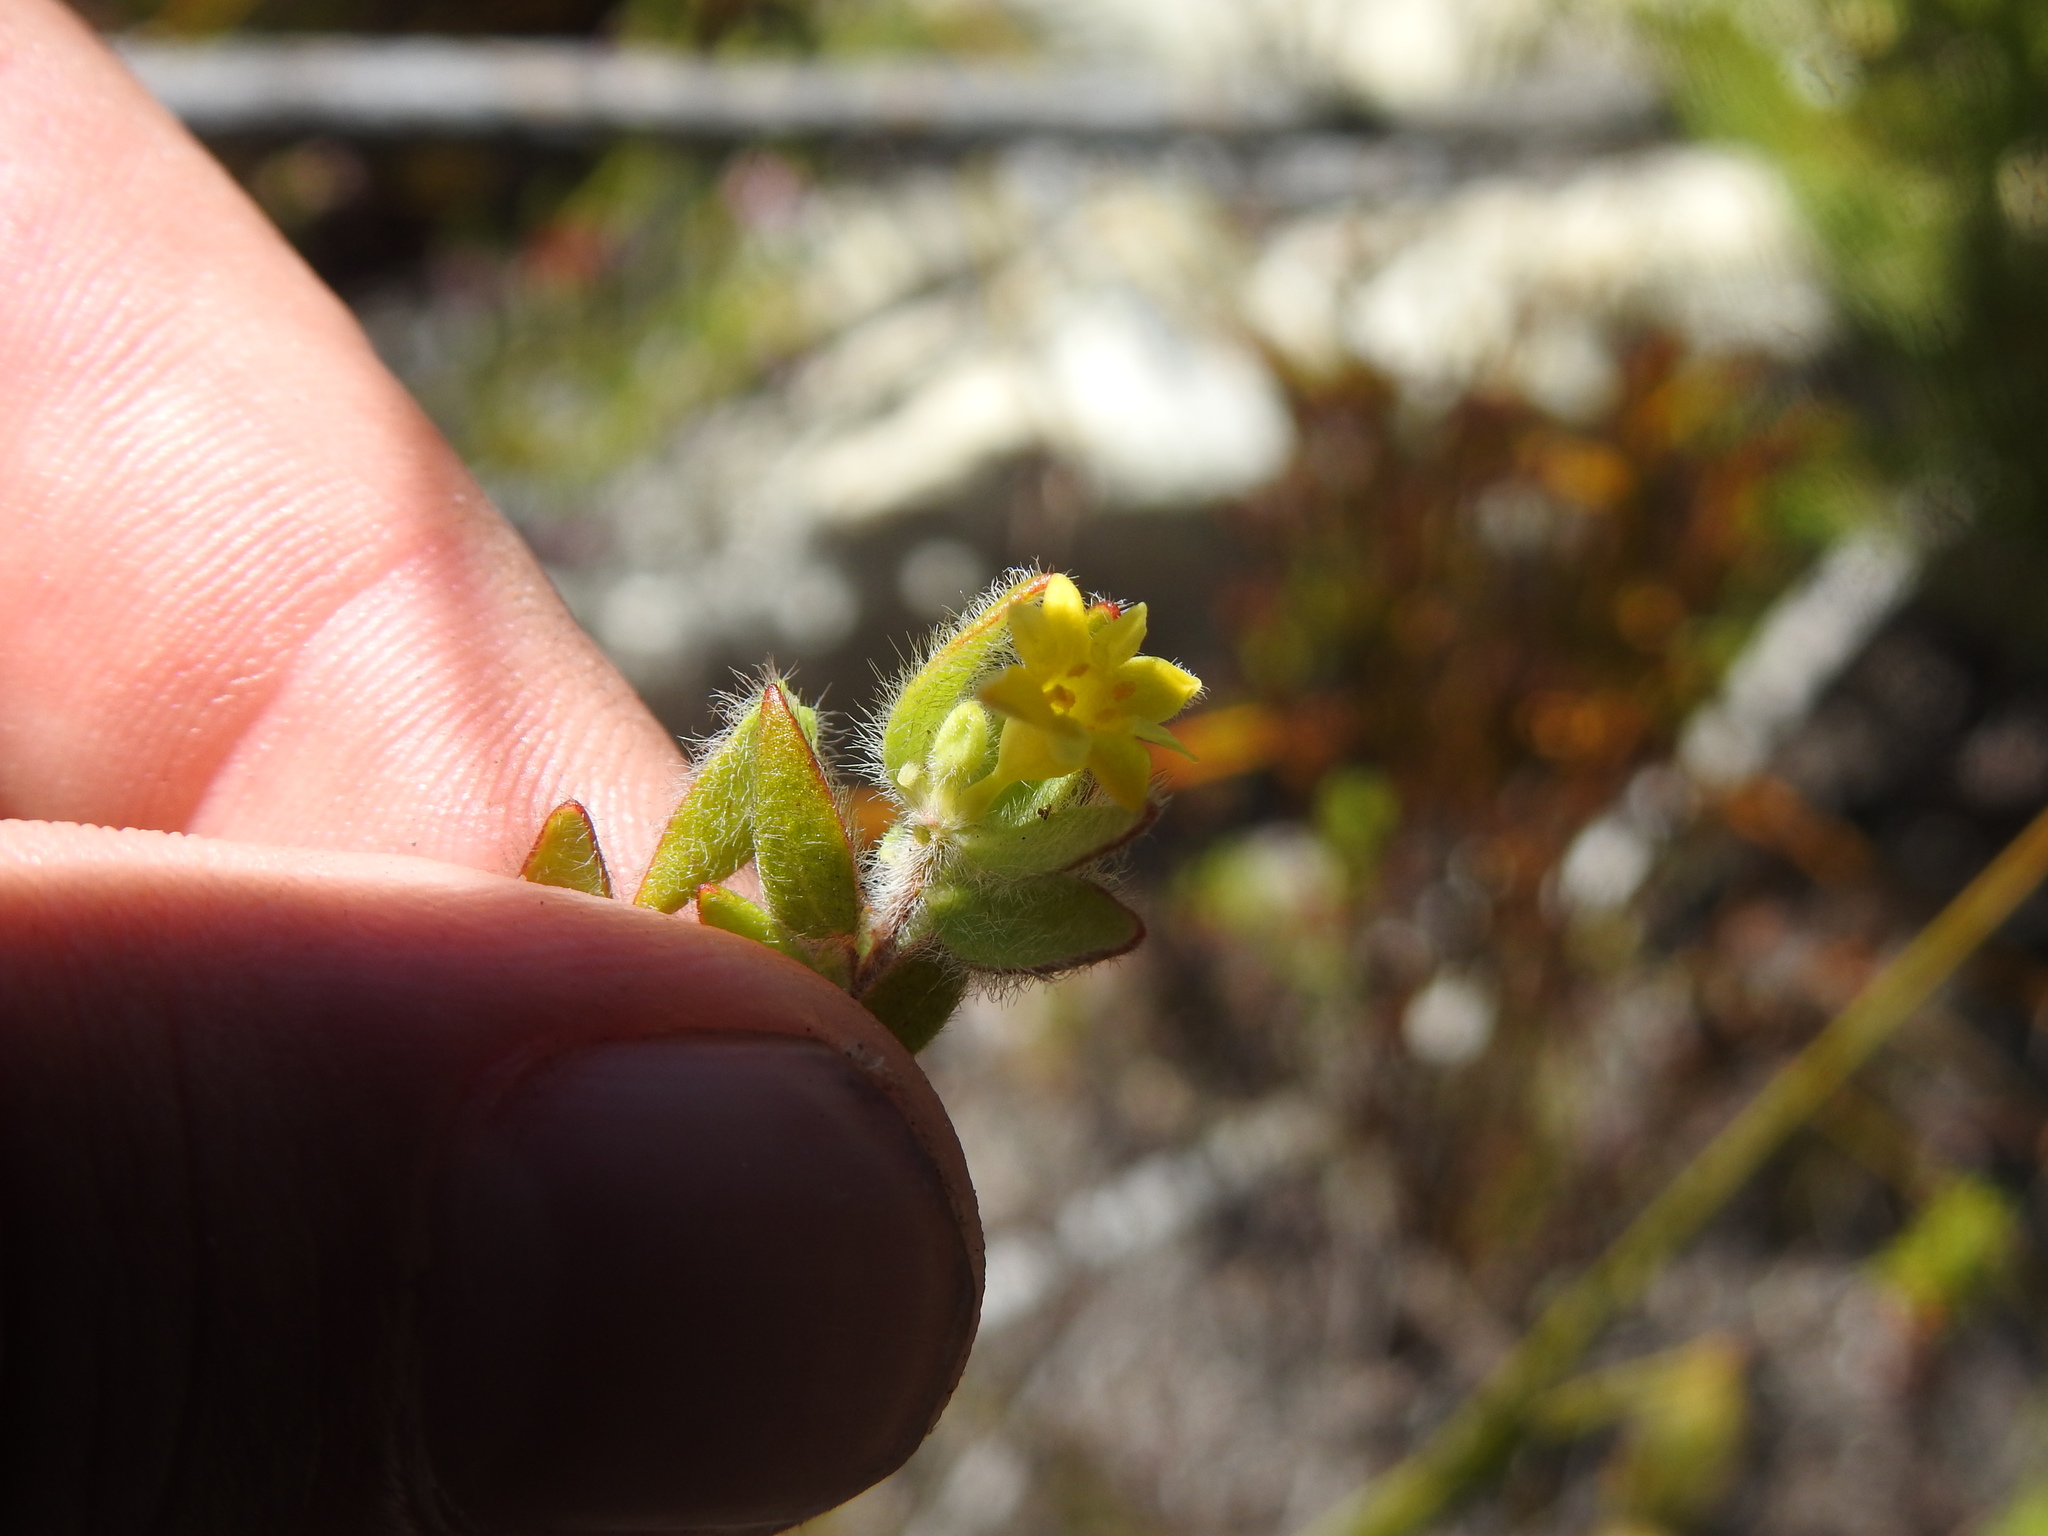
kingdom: Plantae
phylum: Tracheophyta
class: Magnoliopsida
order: Malvales
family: Thymelaeaceae
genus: Gnidia
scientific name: Gnidia sonderiana
